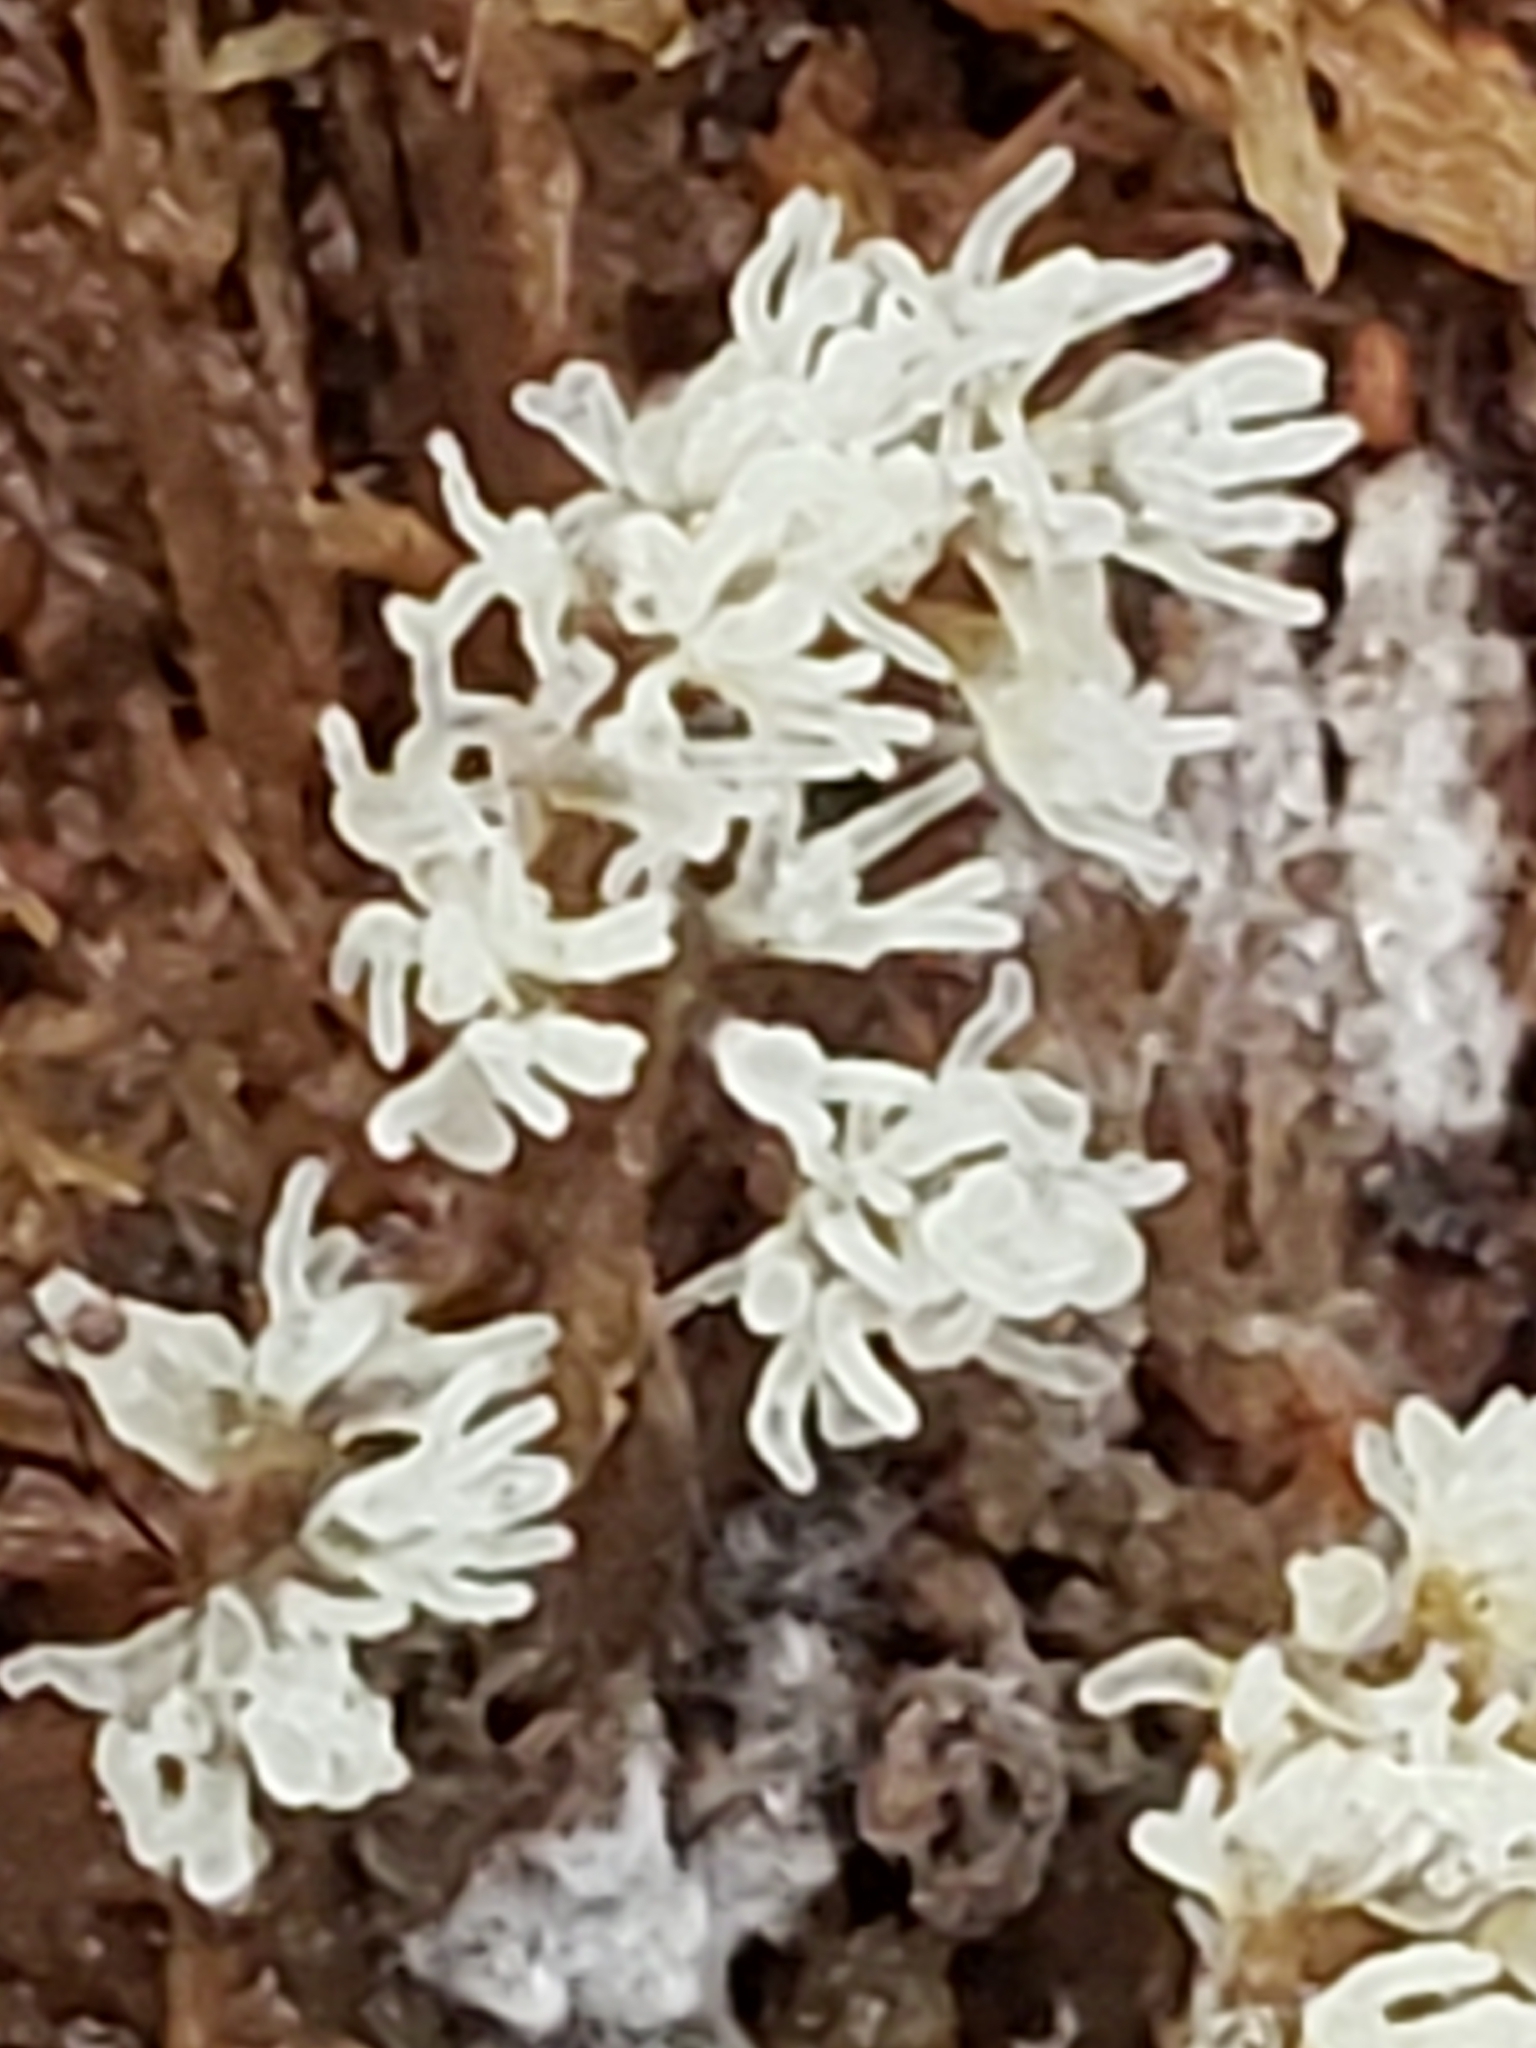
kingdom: Protozoa
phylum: Mycetozoa
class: Protosteliomycetes
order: Ceratiomyxales
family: Ceratiomyxaceae
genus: Ceratiomyxa
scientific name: Ceratiomyxa fruticulosa
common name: Honeycomb coral slime mold
